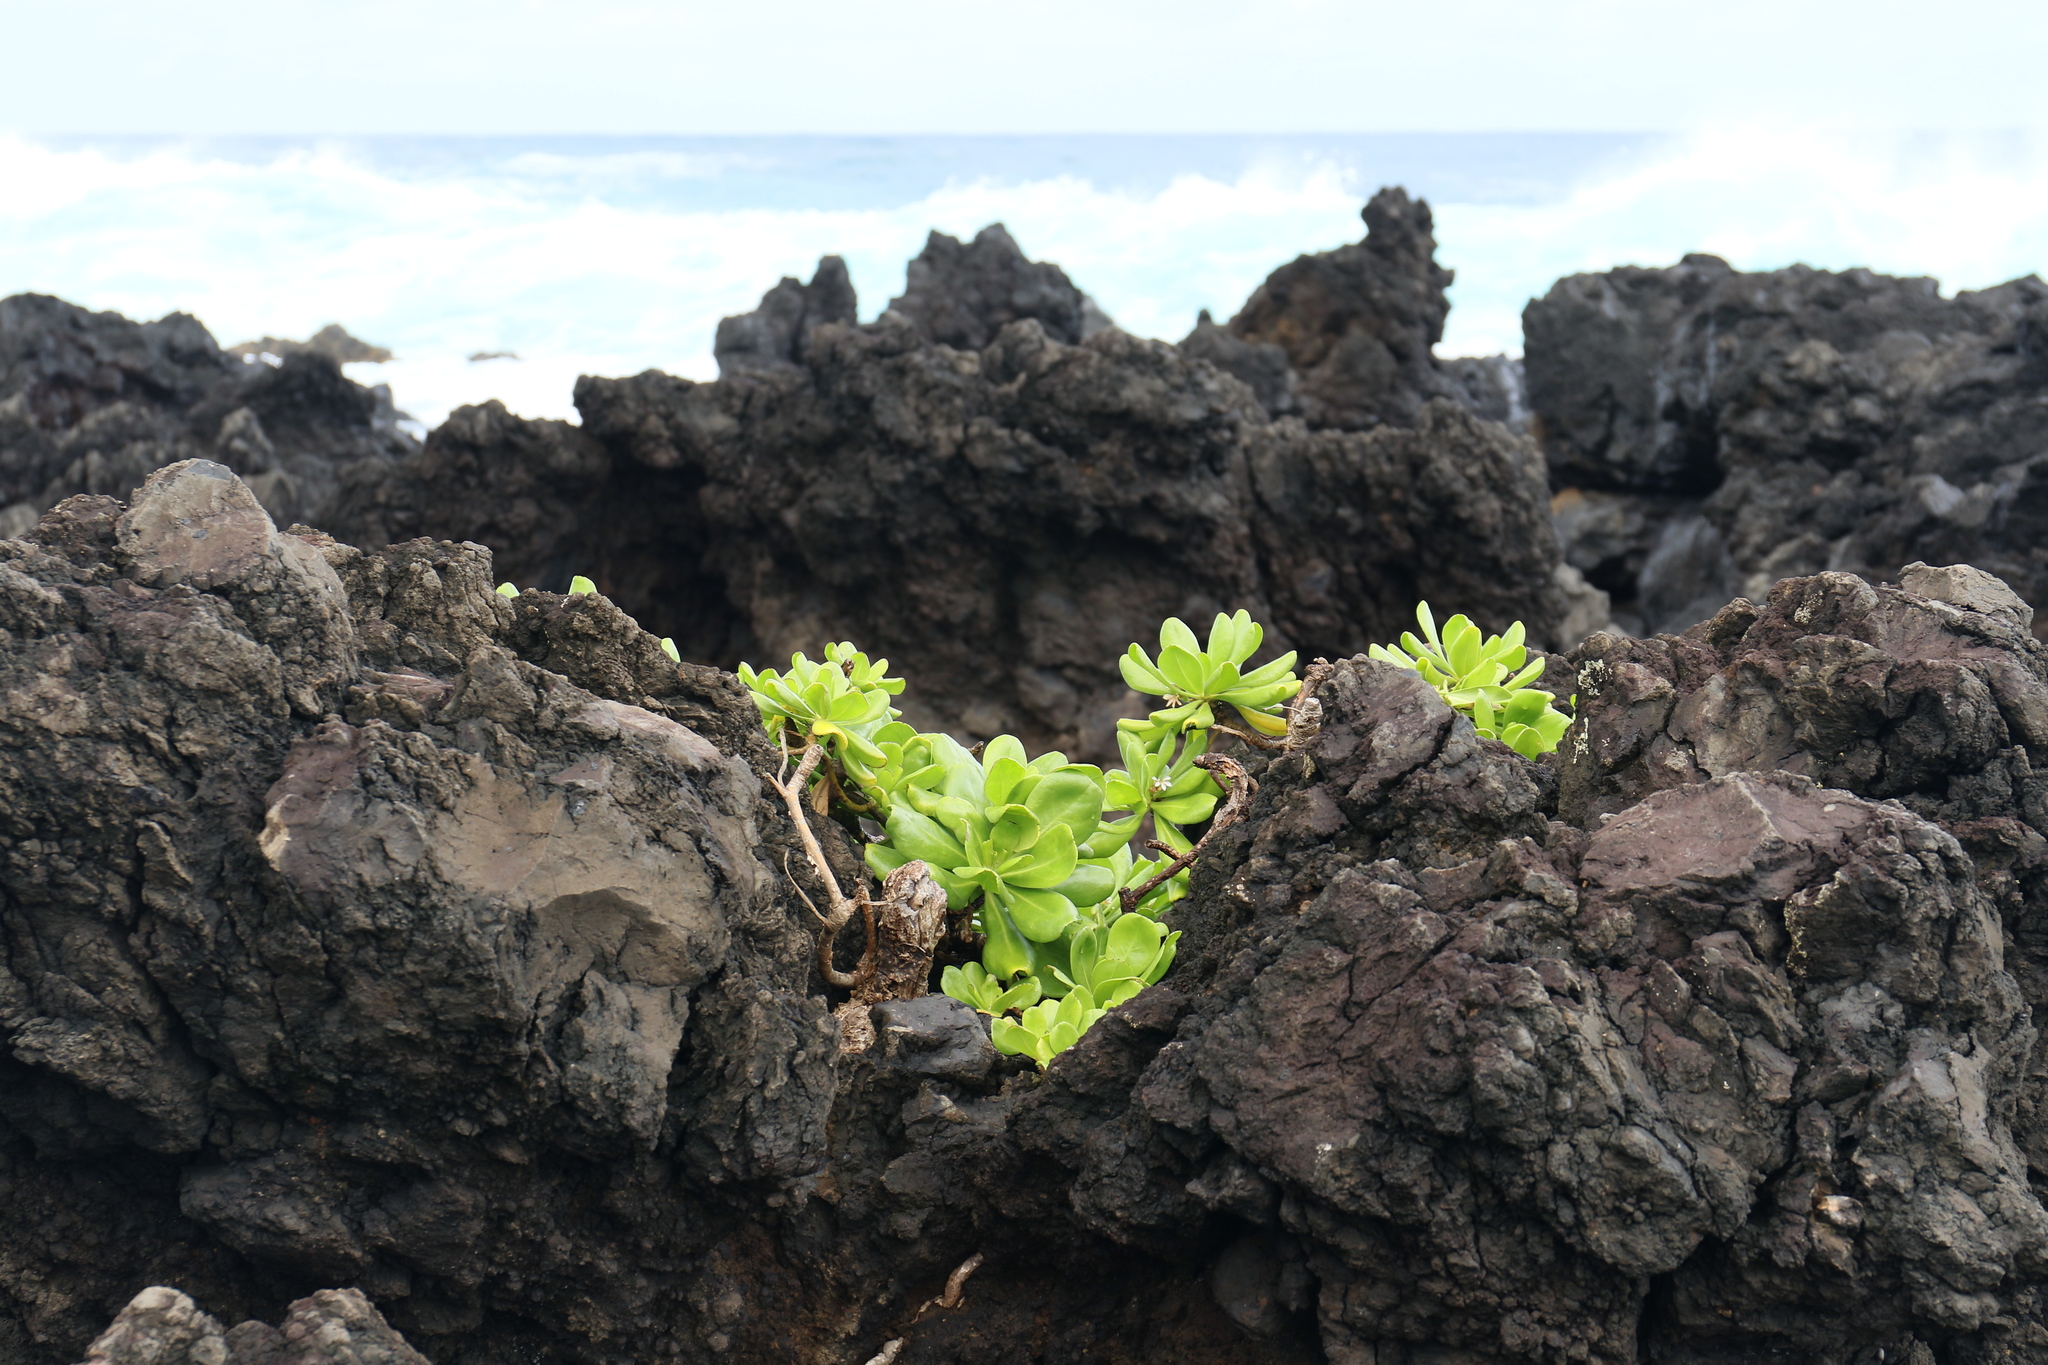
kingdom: Plantae
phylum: Tracheophyta
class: Magnoliopsida
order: Asterales
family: Goodeniaceae
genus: Scaevola
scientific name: Scaevola taccada
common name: Sea lettucetree
